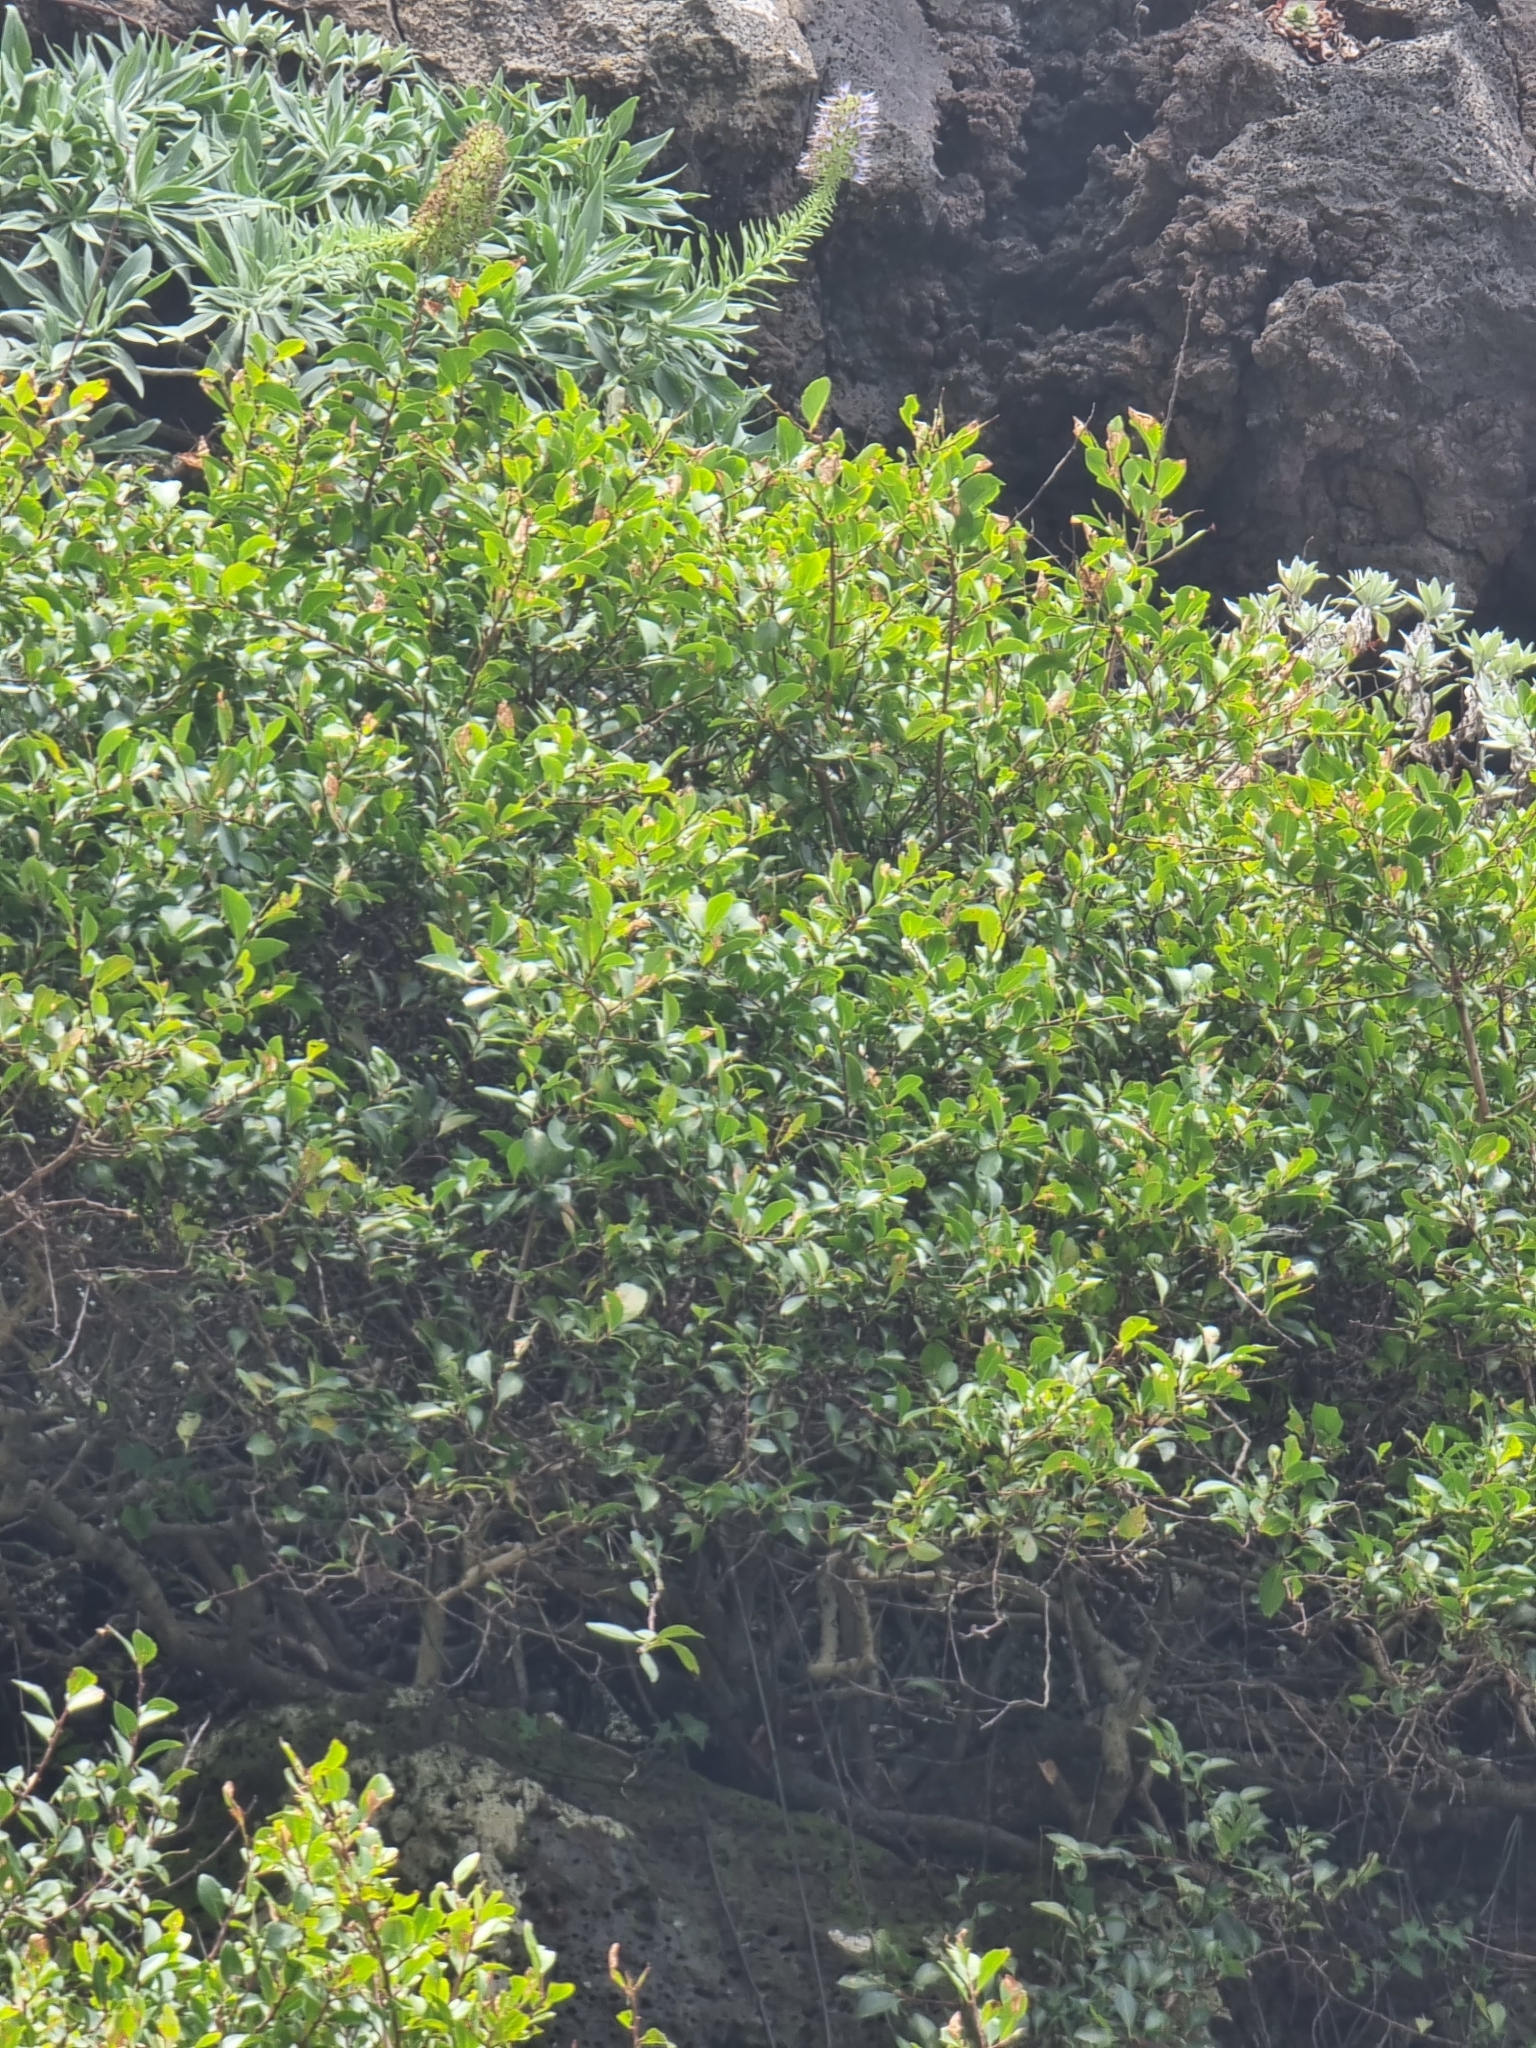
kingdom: Plantae
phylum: Tracheophyta
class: Magnoliopsida
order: Celastrales
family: Celastraceae
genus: Gymnosporia
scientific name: Gymnosporia dryandri
